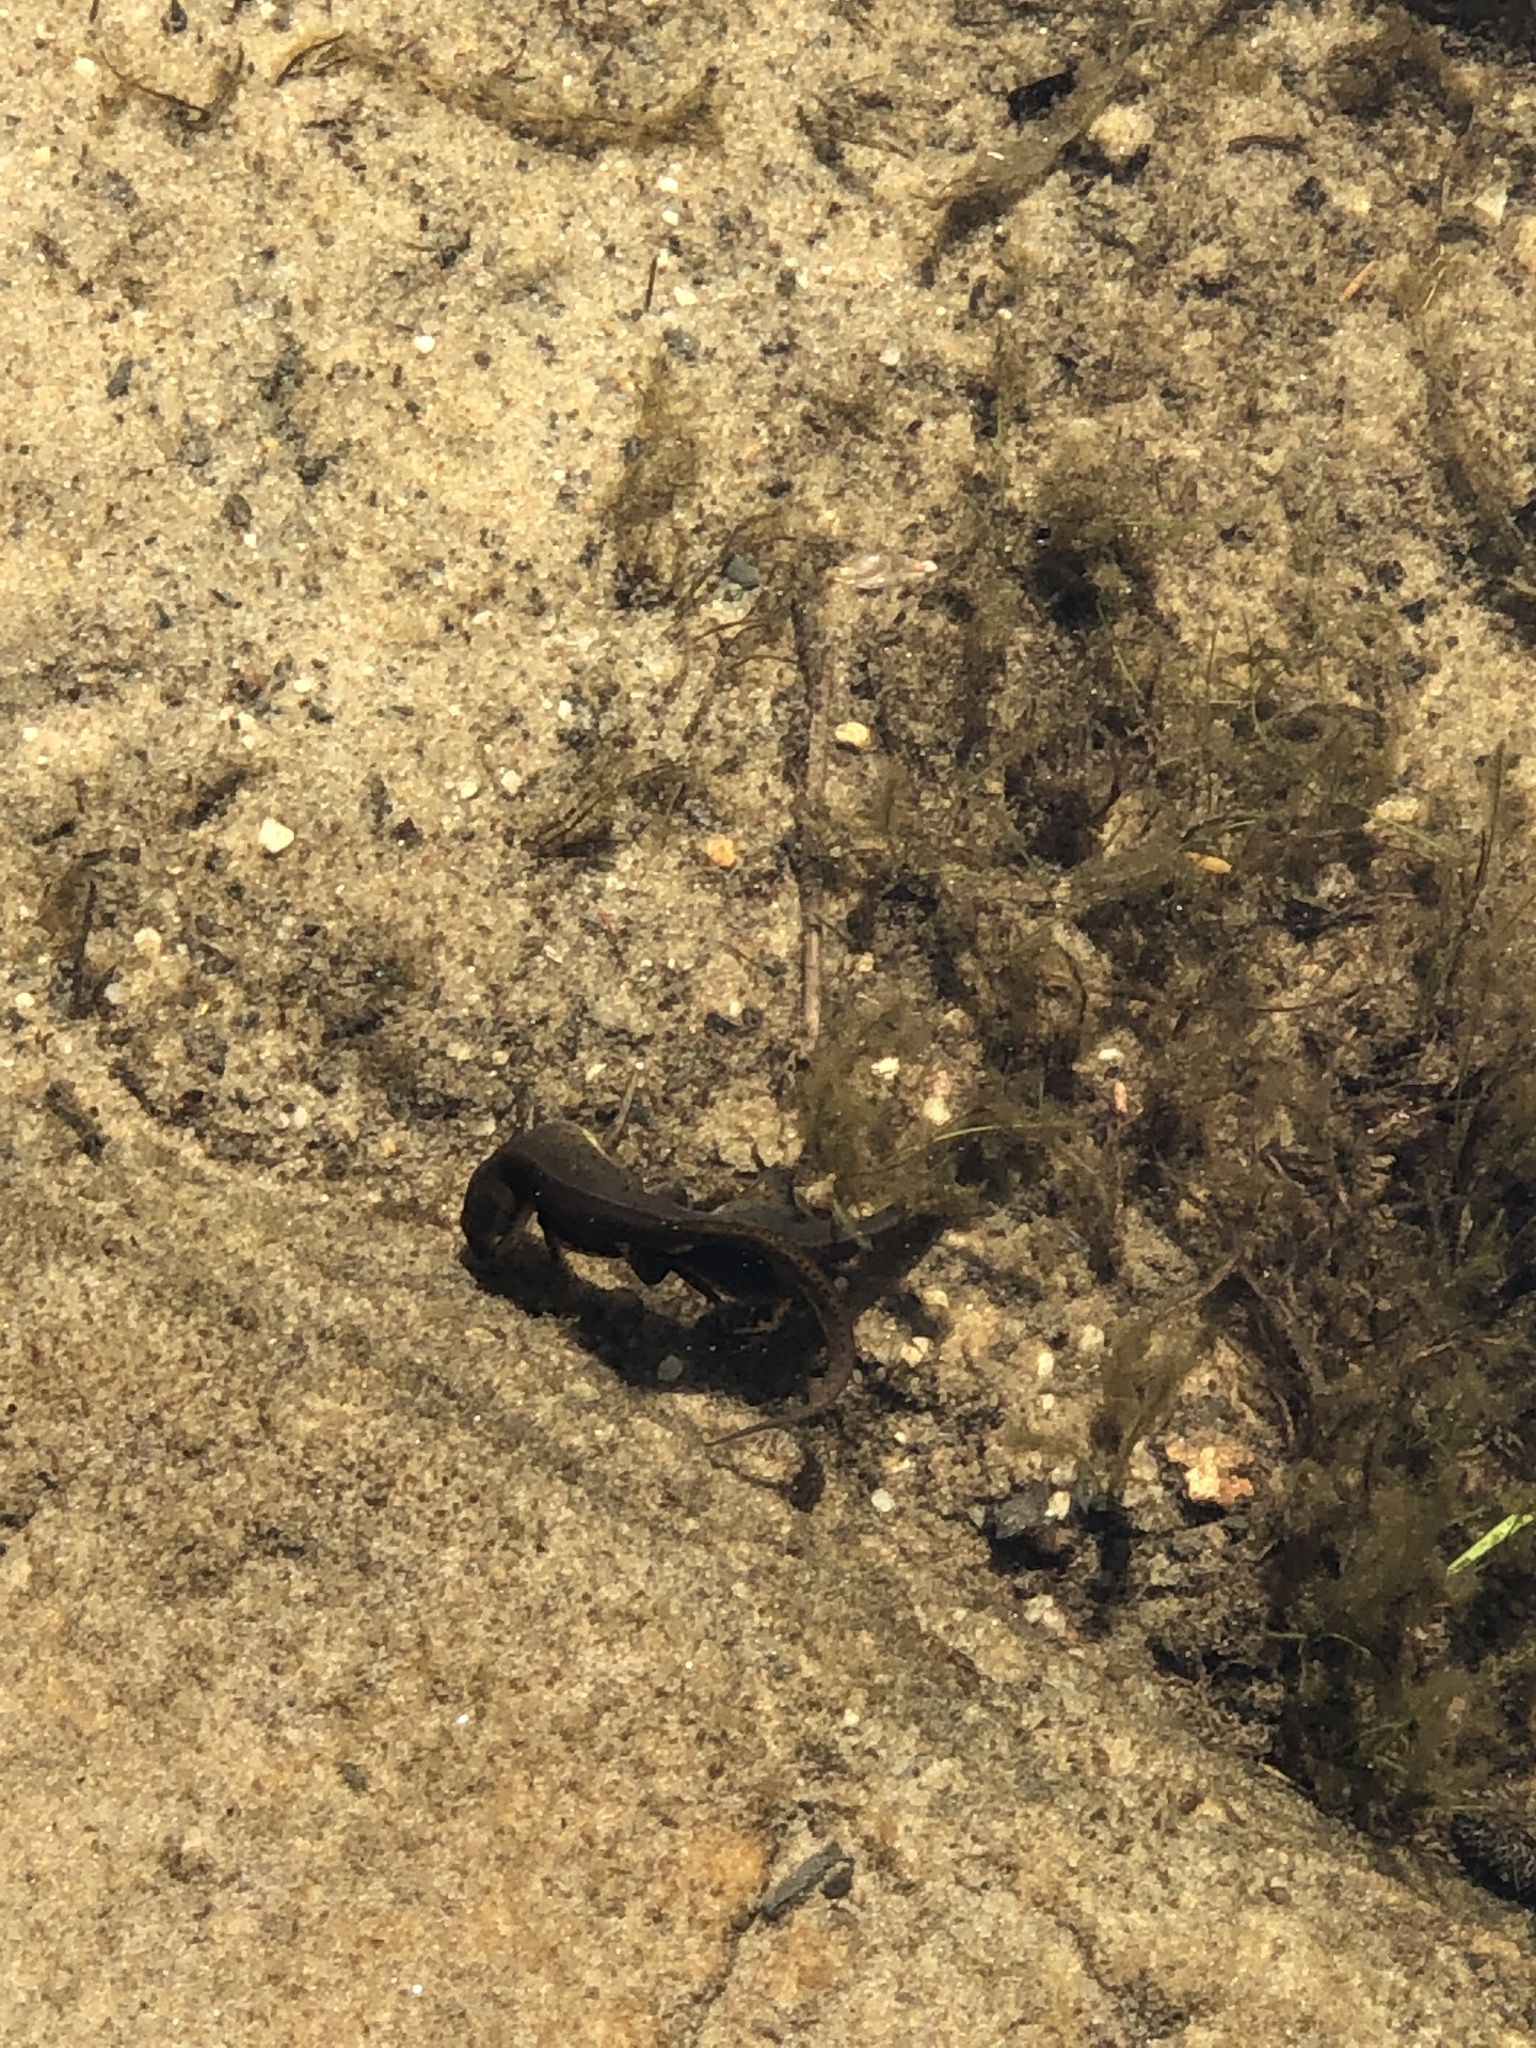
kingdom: Animalia
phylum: Chordata
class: Amphibia
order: Caudata
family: Salamandridae
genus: Notophthalmus
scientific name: Notophthalmus viridescens
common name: Eastern newt
